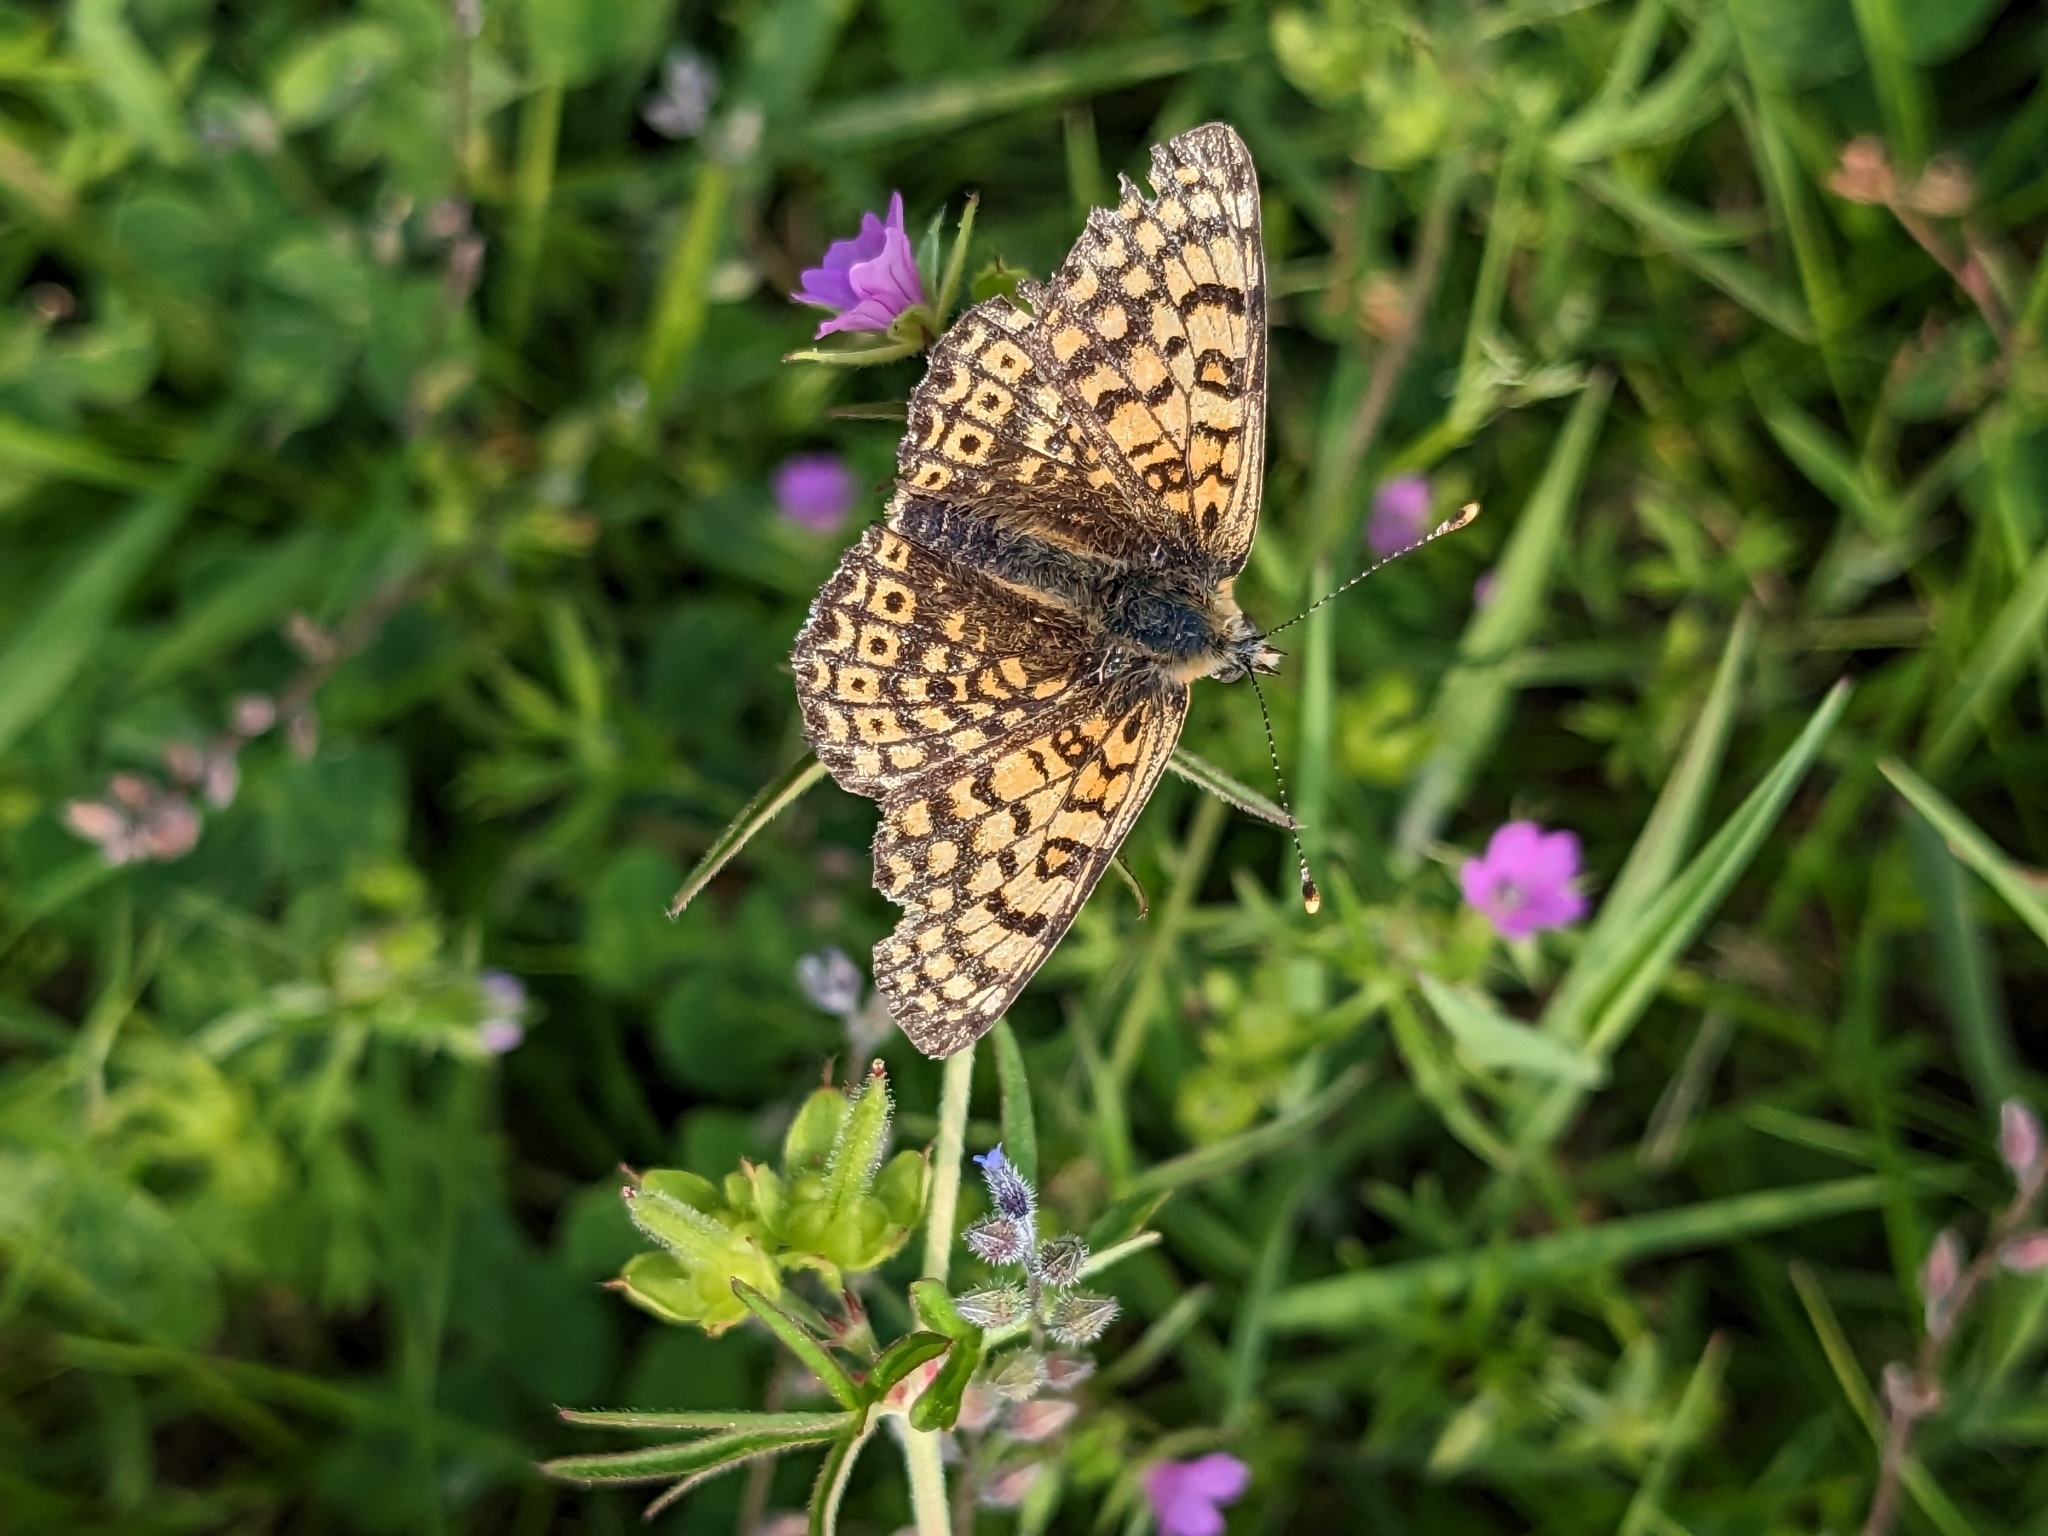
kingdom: Animalia
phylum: Arthropoda
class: Insecta
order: Lepidoptera
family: Nymphalidae
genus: Melitaea
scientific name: Melitaea cinxia
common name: Glanville fritillary
